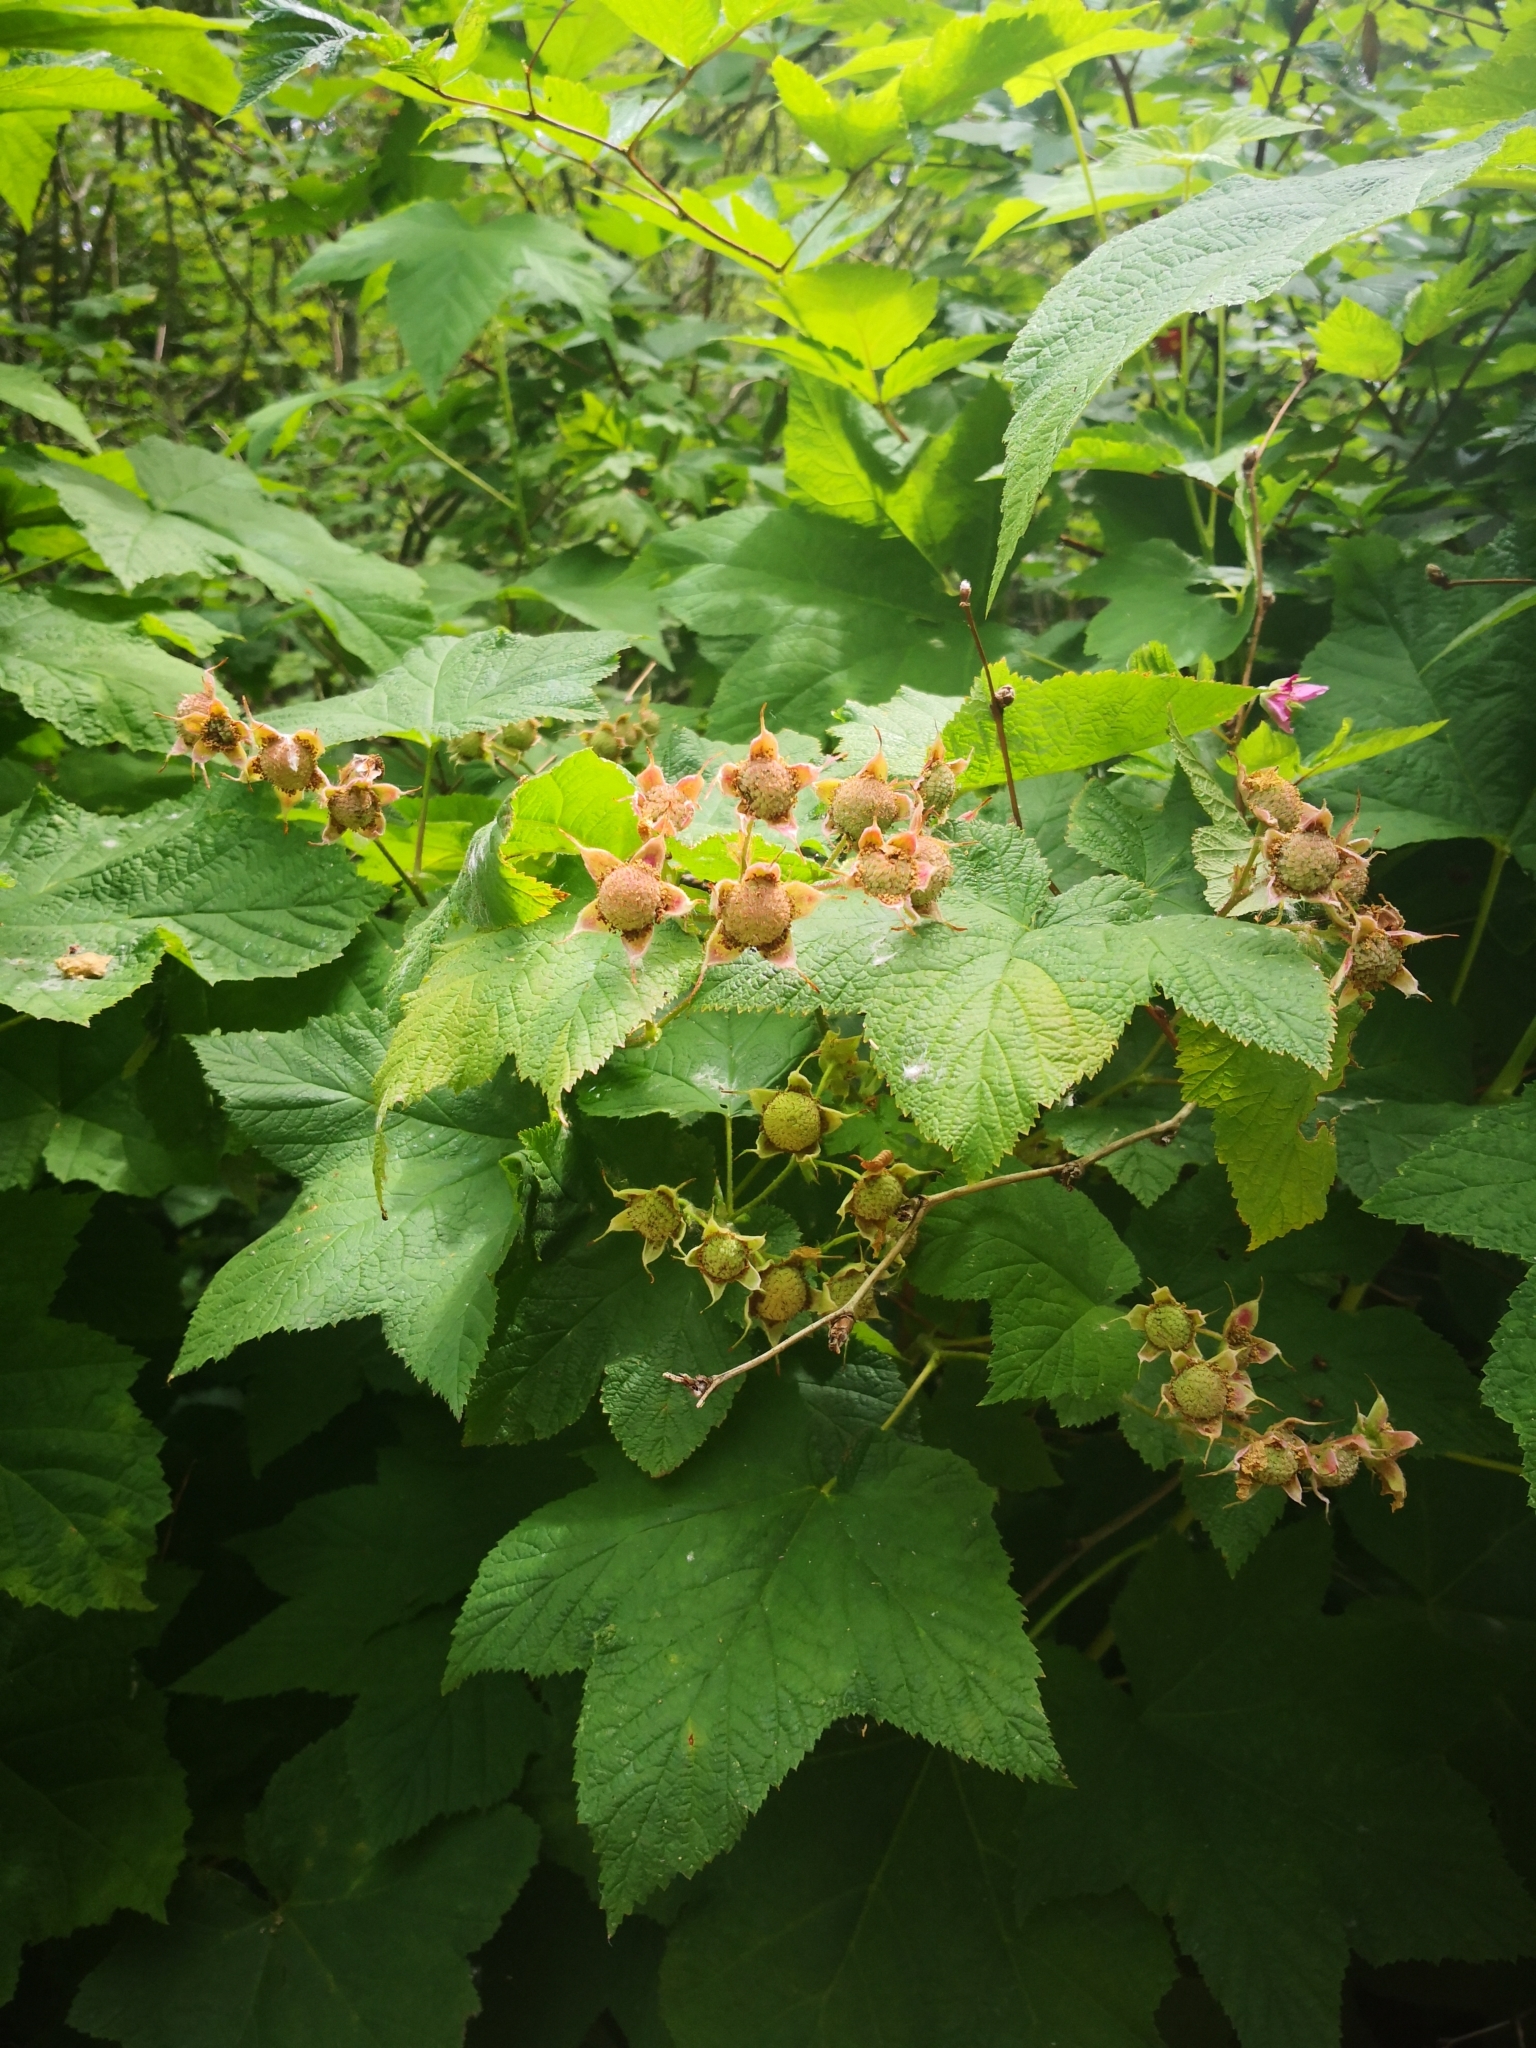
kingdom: Plantae
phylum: Tracheophyta
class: Magnoliopsida
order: Rosales
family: Rosaceae
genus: Rubus
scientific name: Rubus parviflorus
